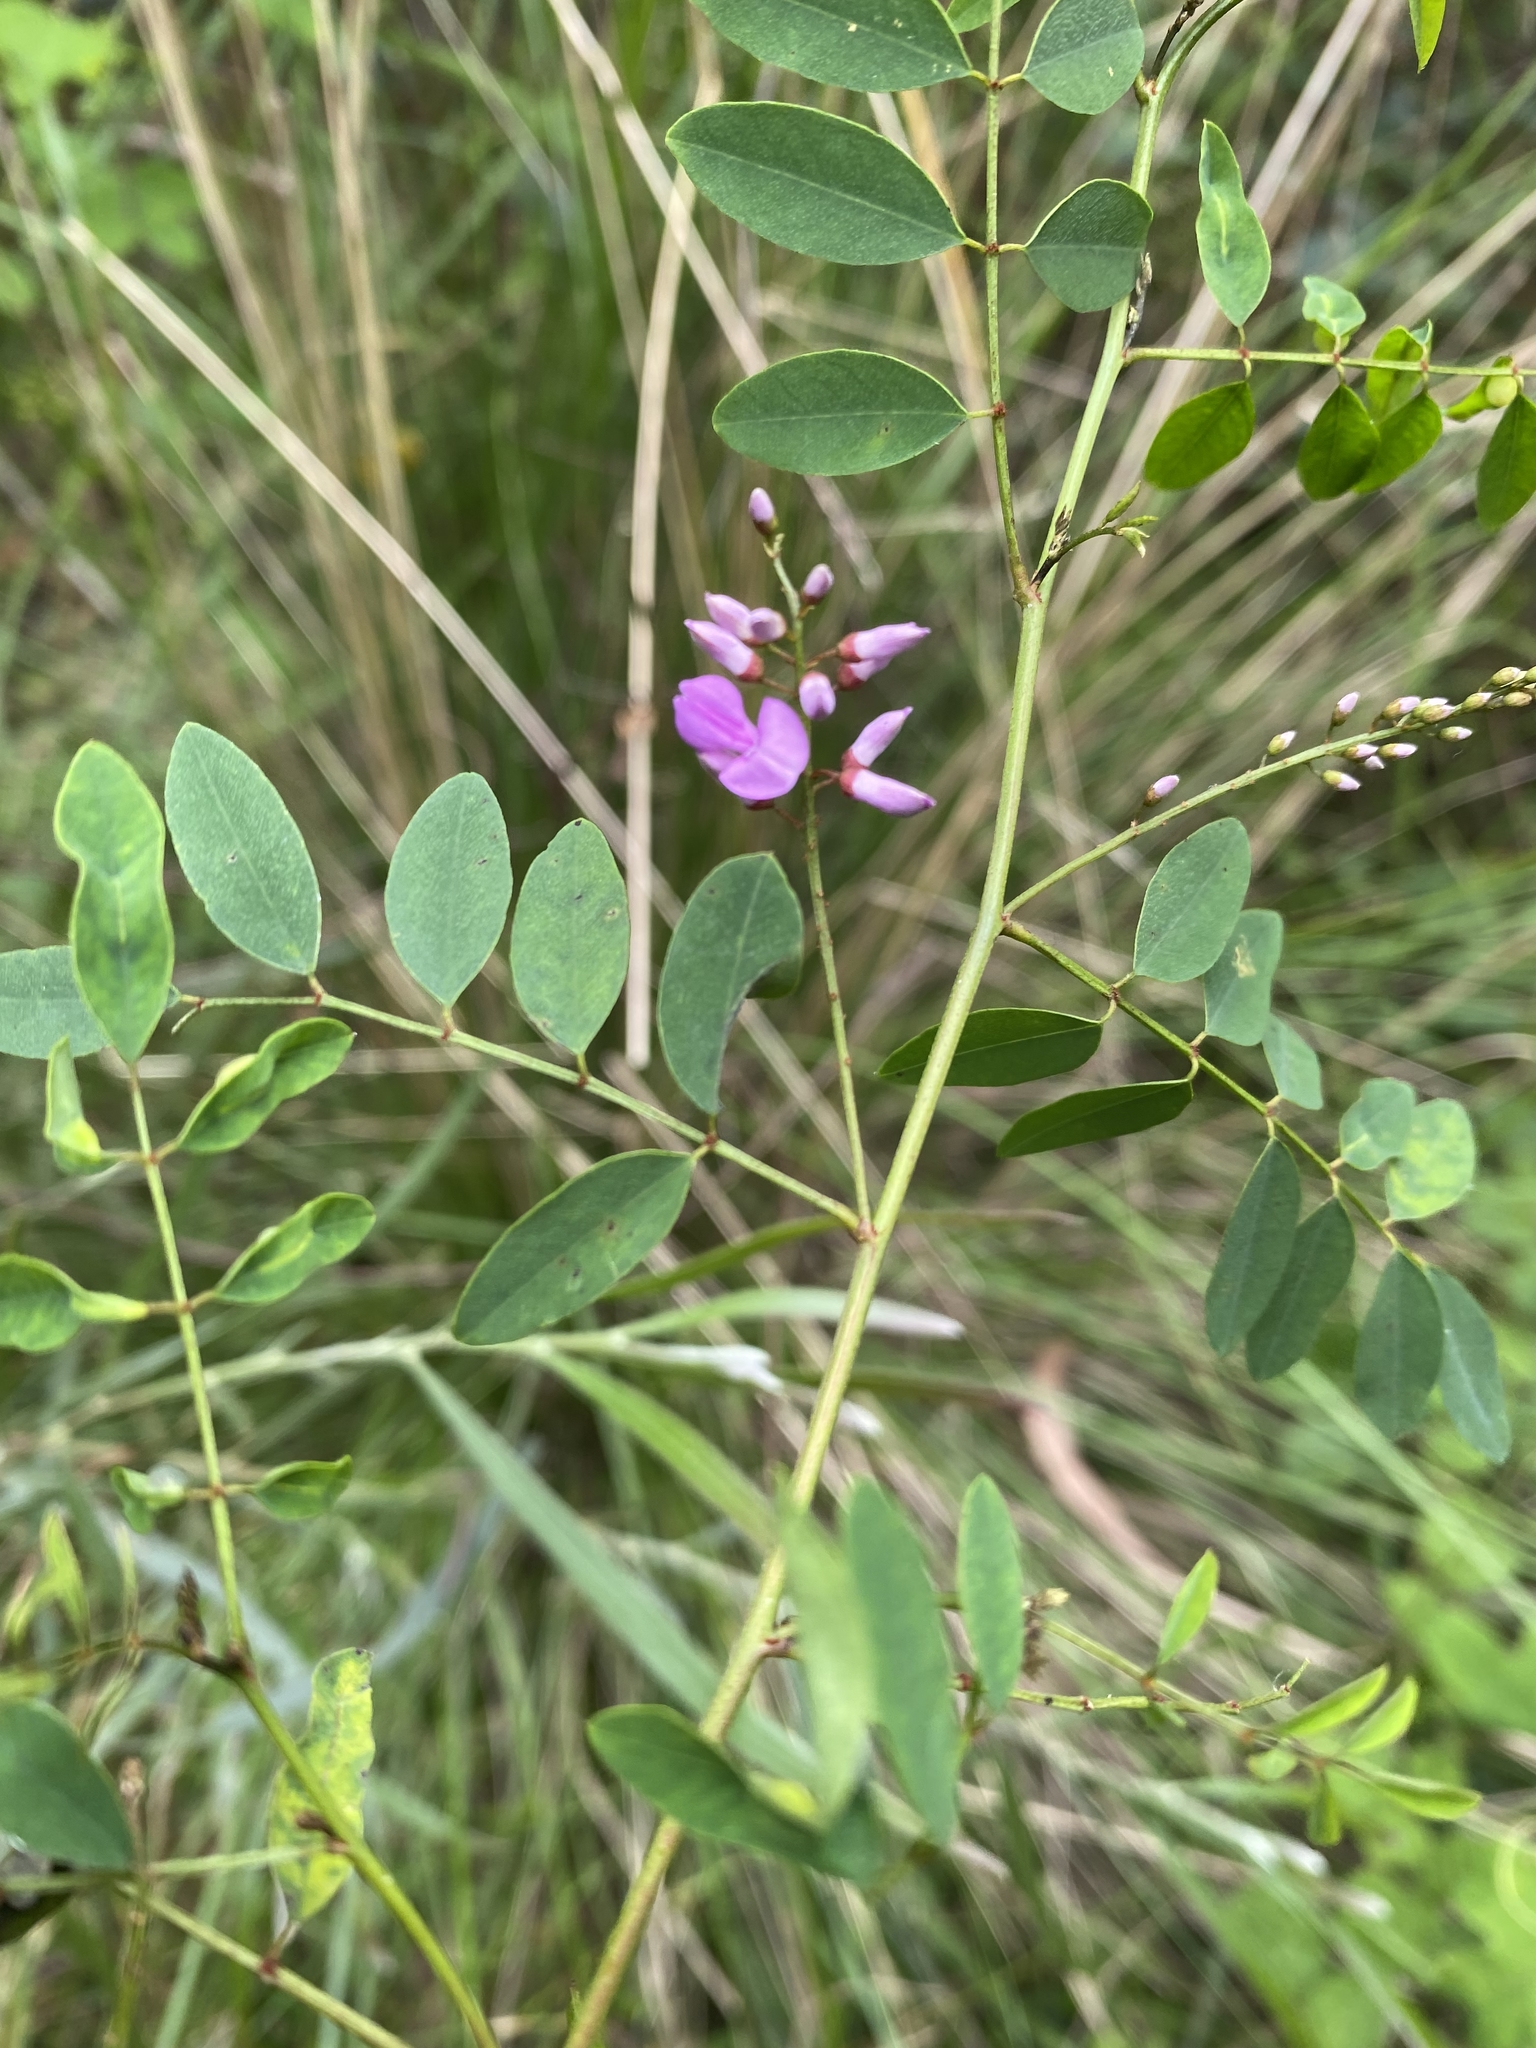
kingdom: Plantae
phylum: Tracheophyta
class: Magnoliopsida
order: Fabales
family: Fabaceae
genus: Indigofera
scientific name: Indigofera australis
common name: Australian indigo
